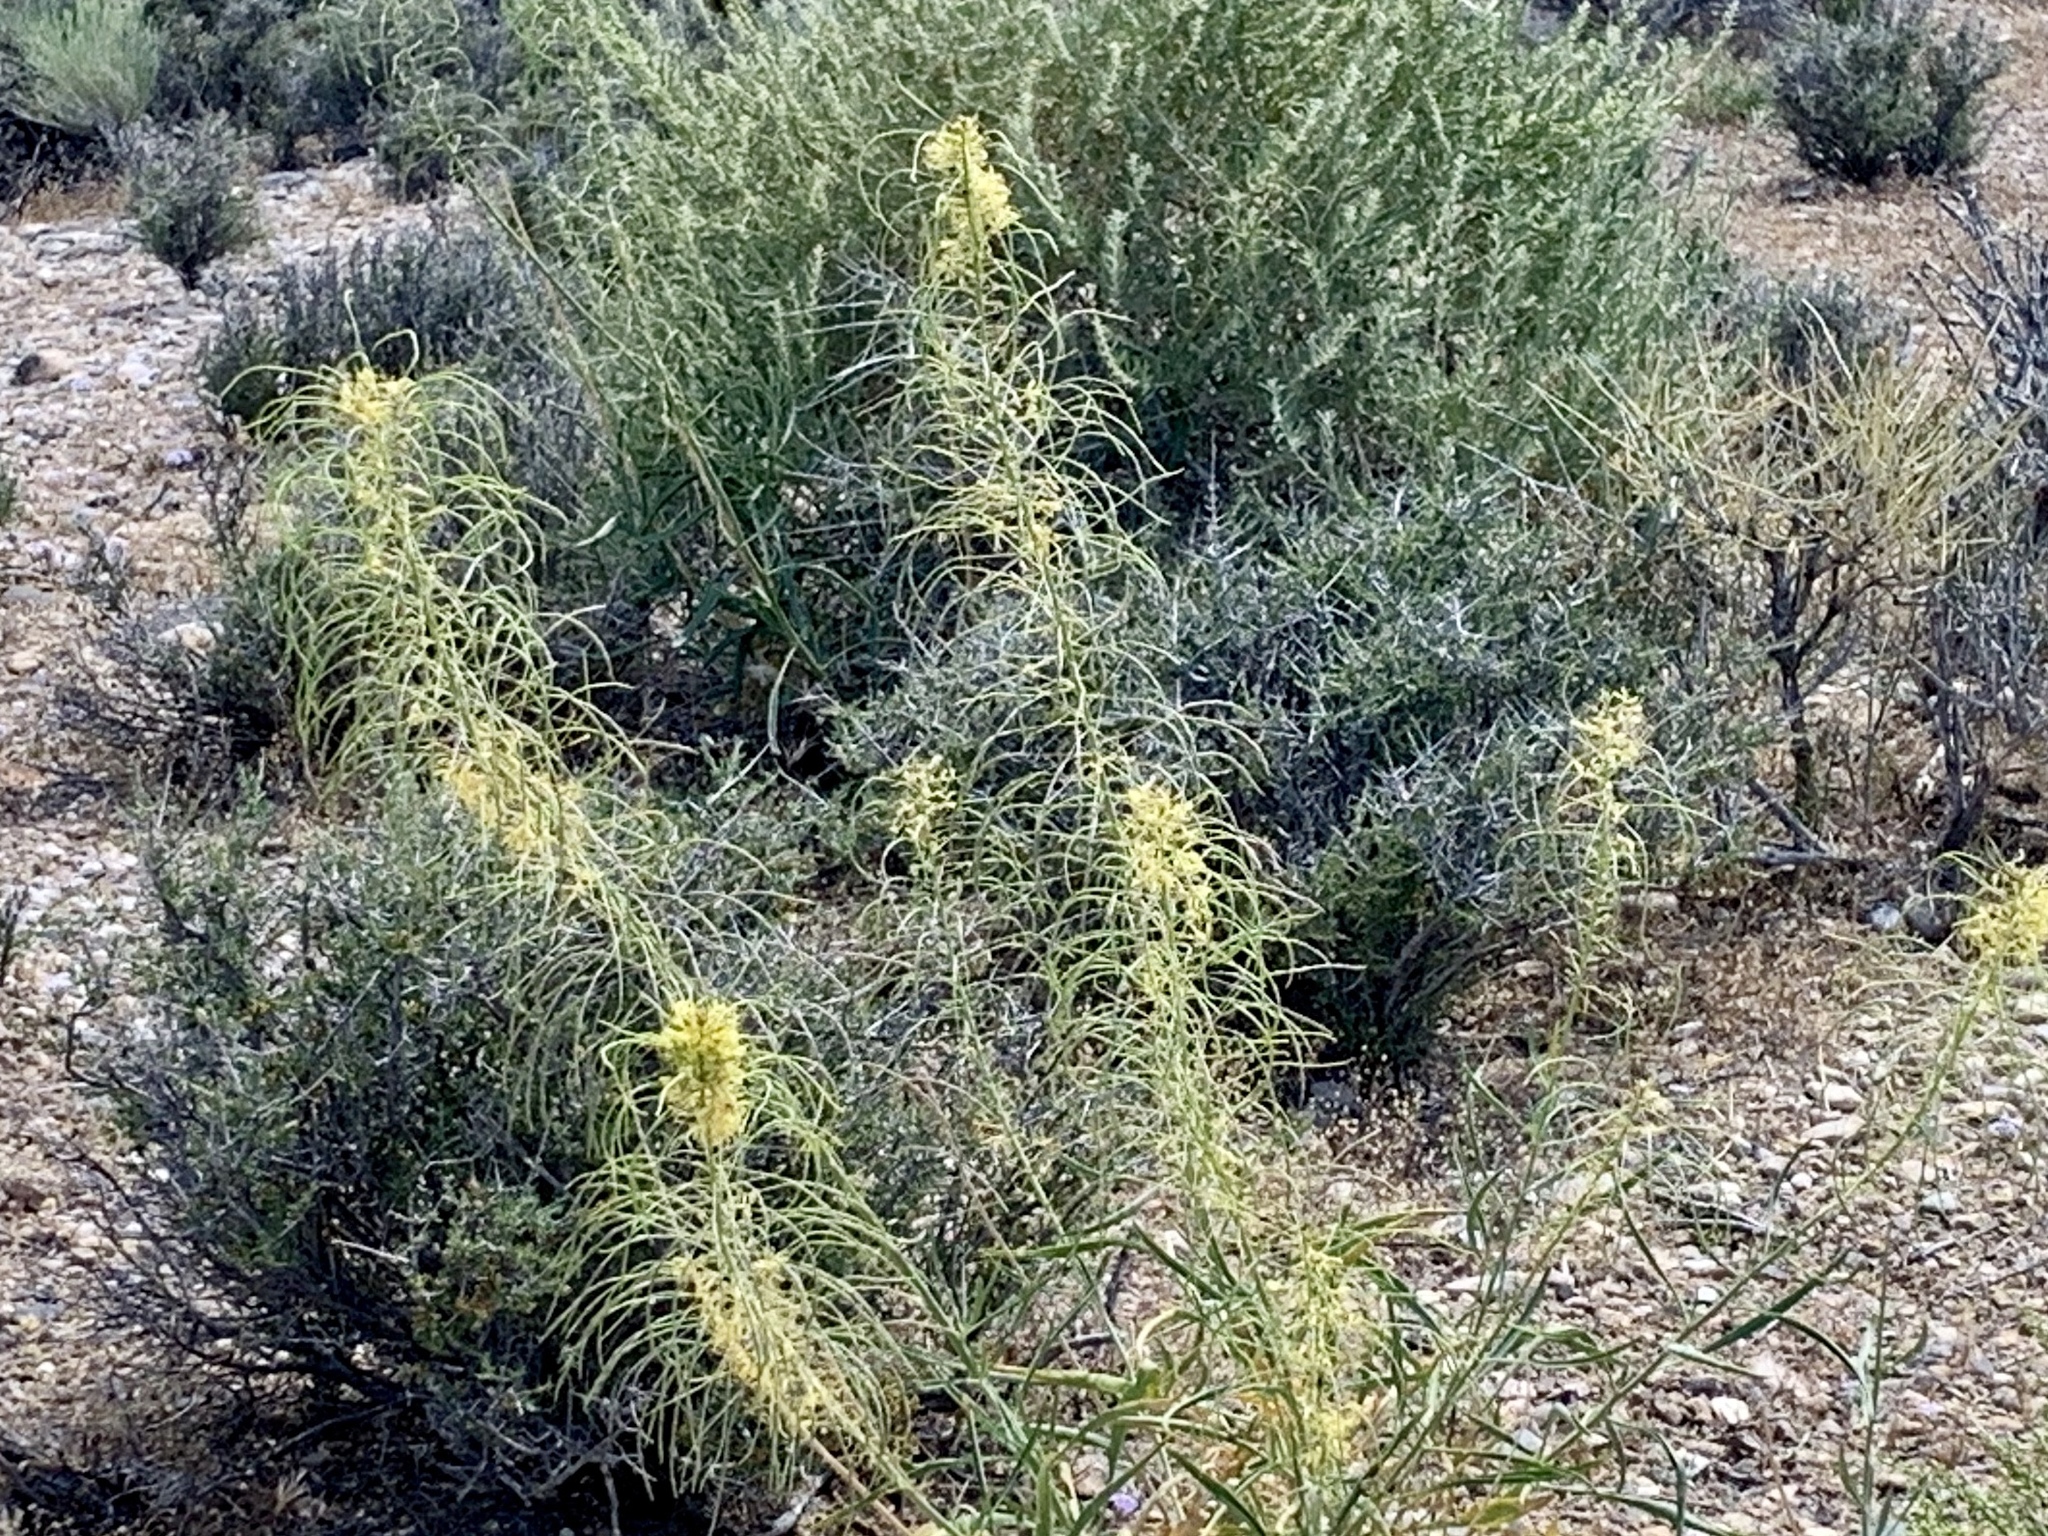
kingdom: Plantae
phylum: Tracheophyta
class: Magnoliopsida
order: Brassicales
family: Brassicaceae
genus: Stanleya
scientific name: Stanleya pinnata
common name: Prince's-plume
